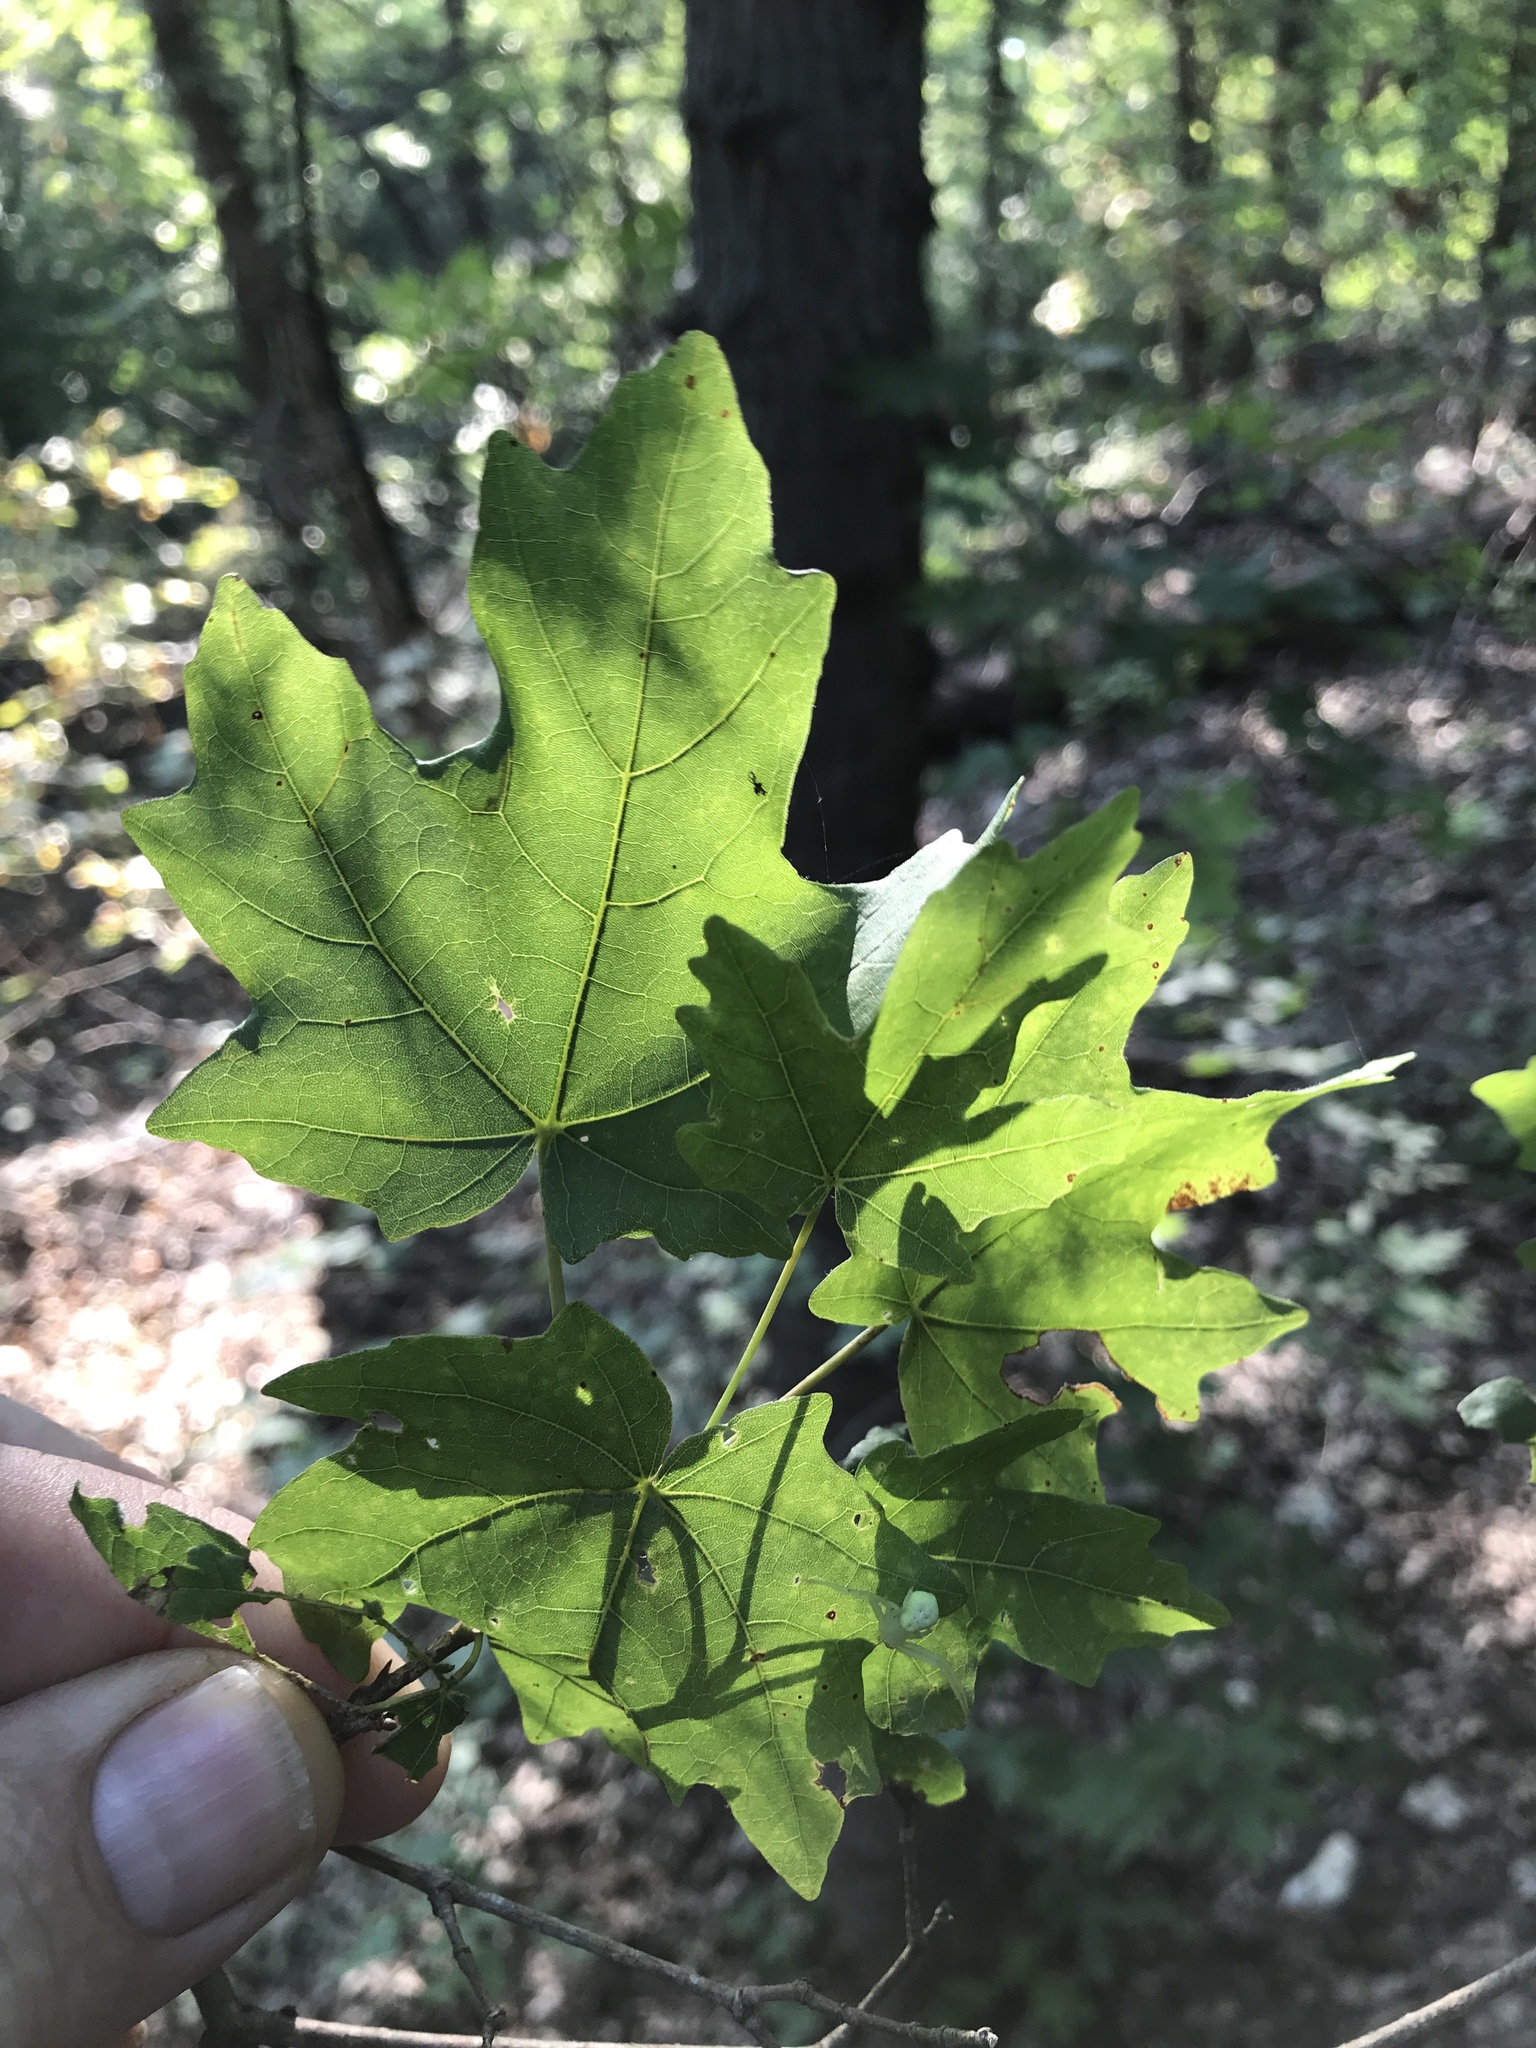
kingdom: Plantae
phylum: Tracheophyta
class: Magnoliopsida
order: Sapindales
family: Sapindaceae
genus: Acer
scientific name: Acer grandidentatum
